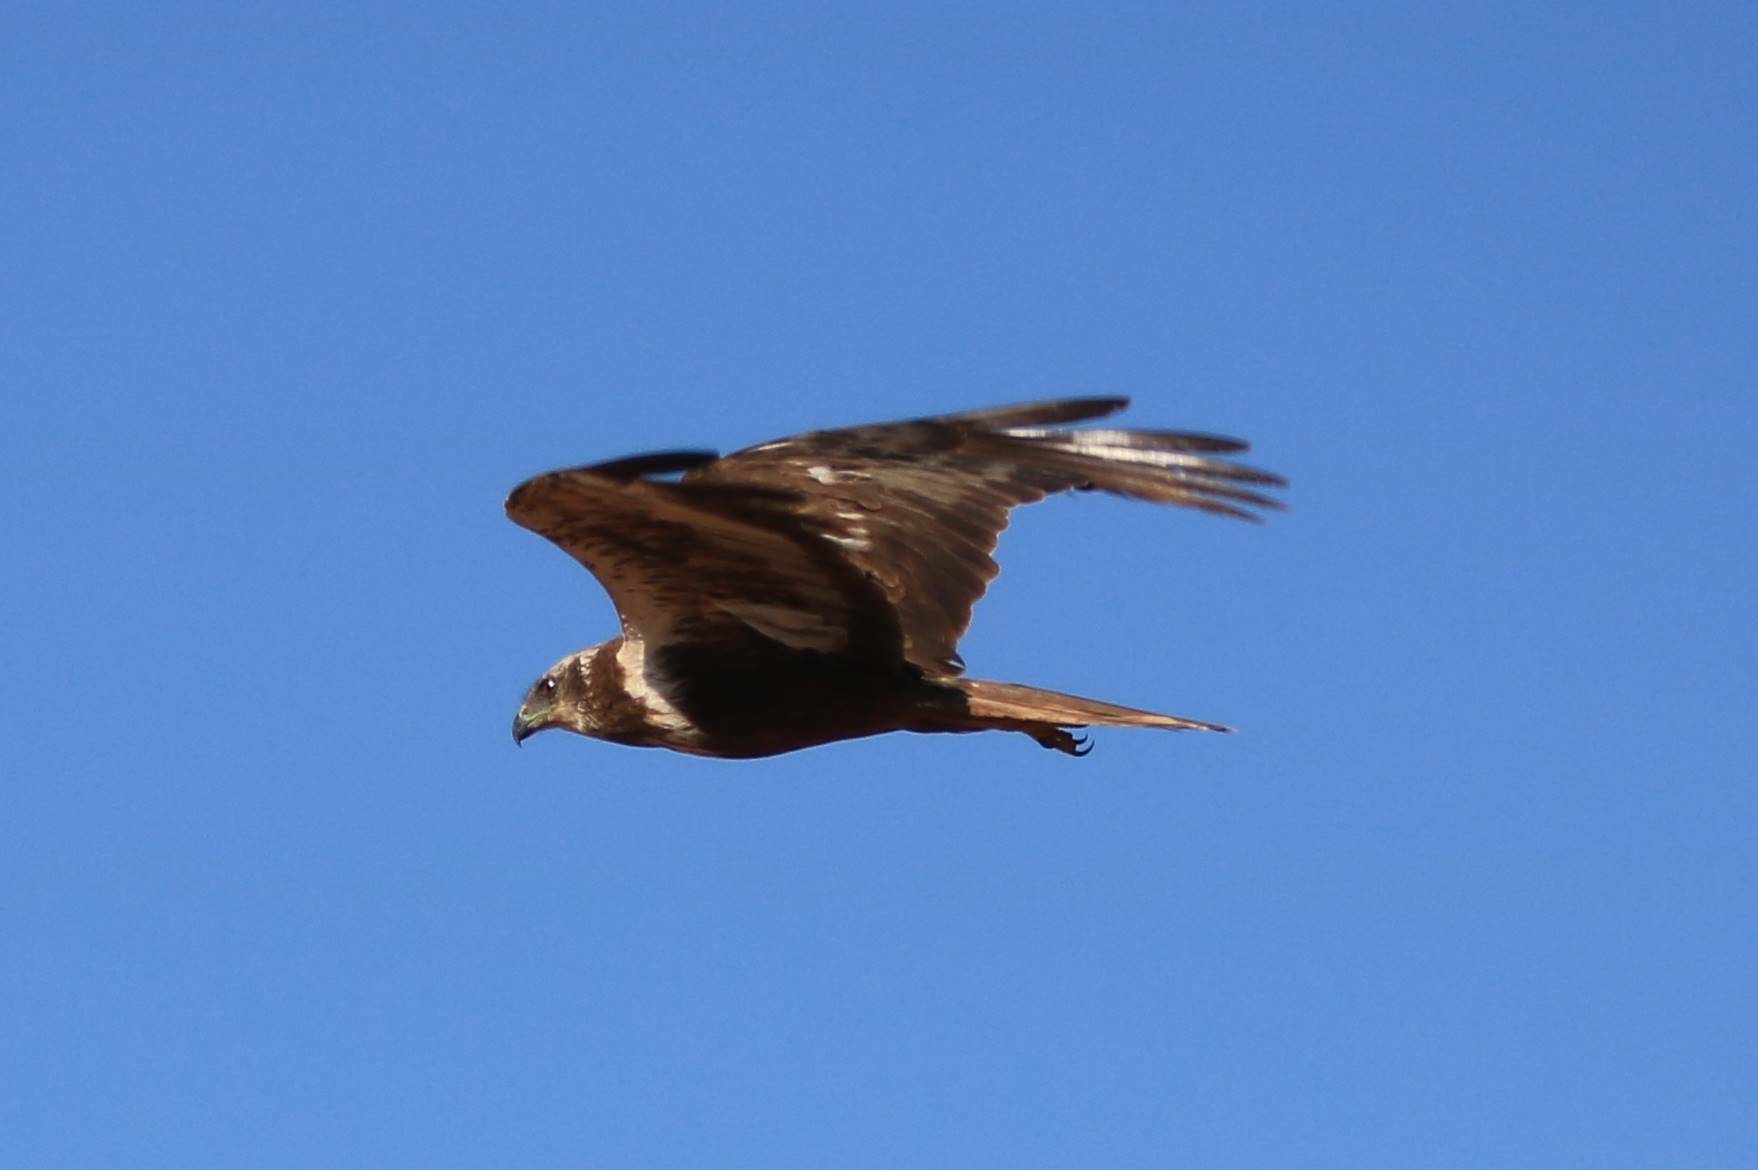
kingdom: Animalia
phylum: Chordata
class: Aves
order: Accipitriformes
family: Accipitridae
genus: Circus
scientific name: Circus aeruginosus
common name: Western marsh harrier
